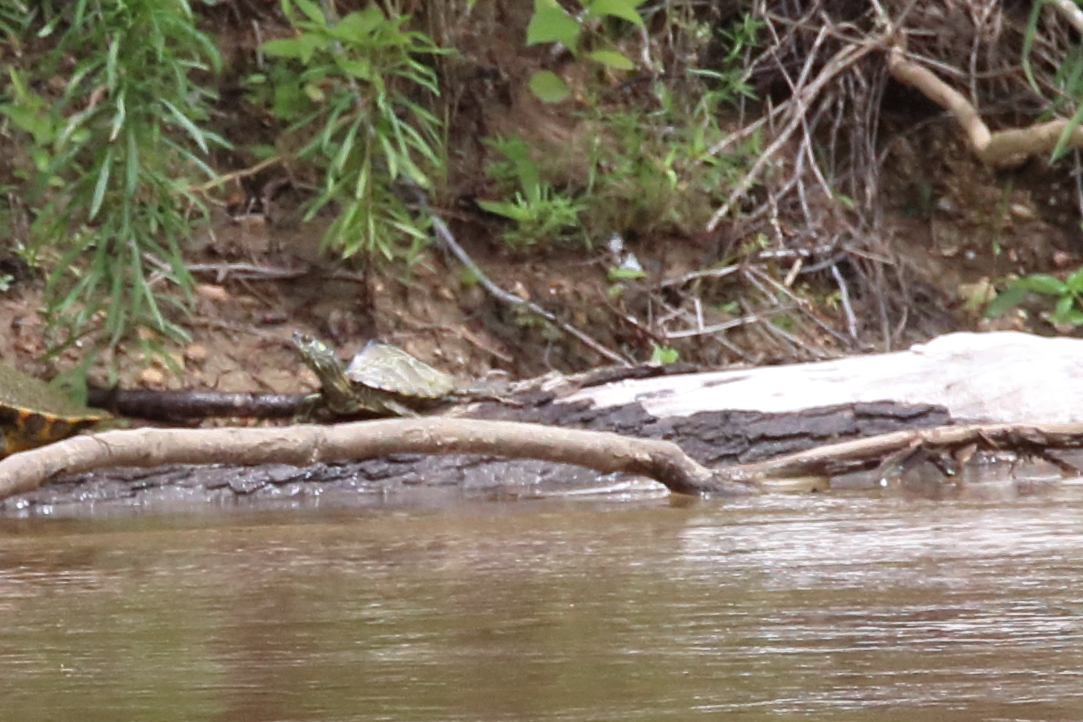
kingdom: Animalia
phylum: Chordata
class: Testudines
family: Emydidae
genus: Graptemys
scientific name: Graptemys pearlensis
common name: Pearl river map turtle
